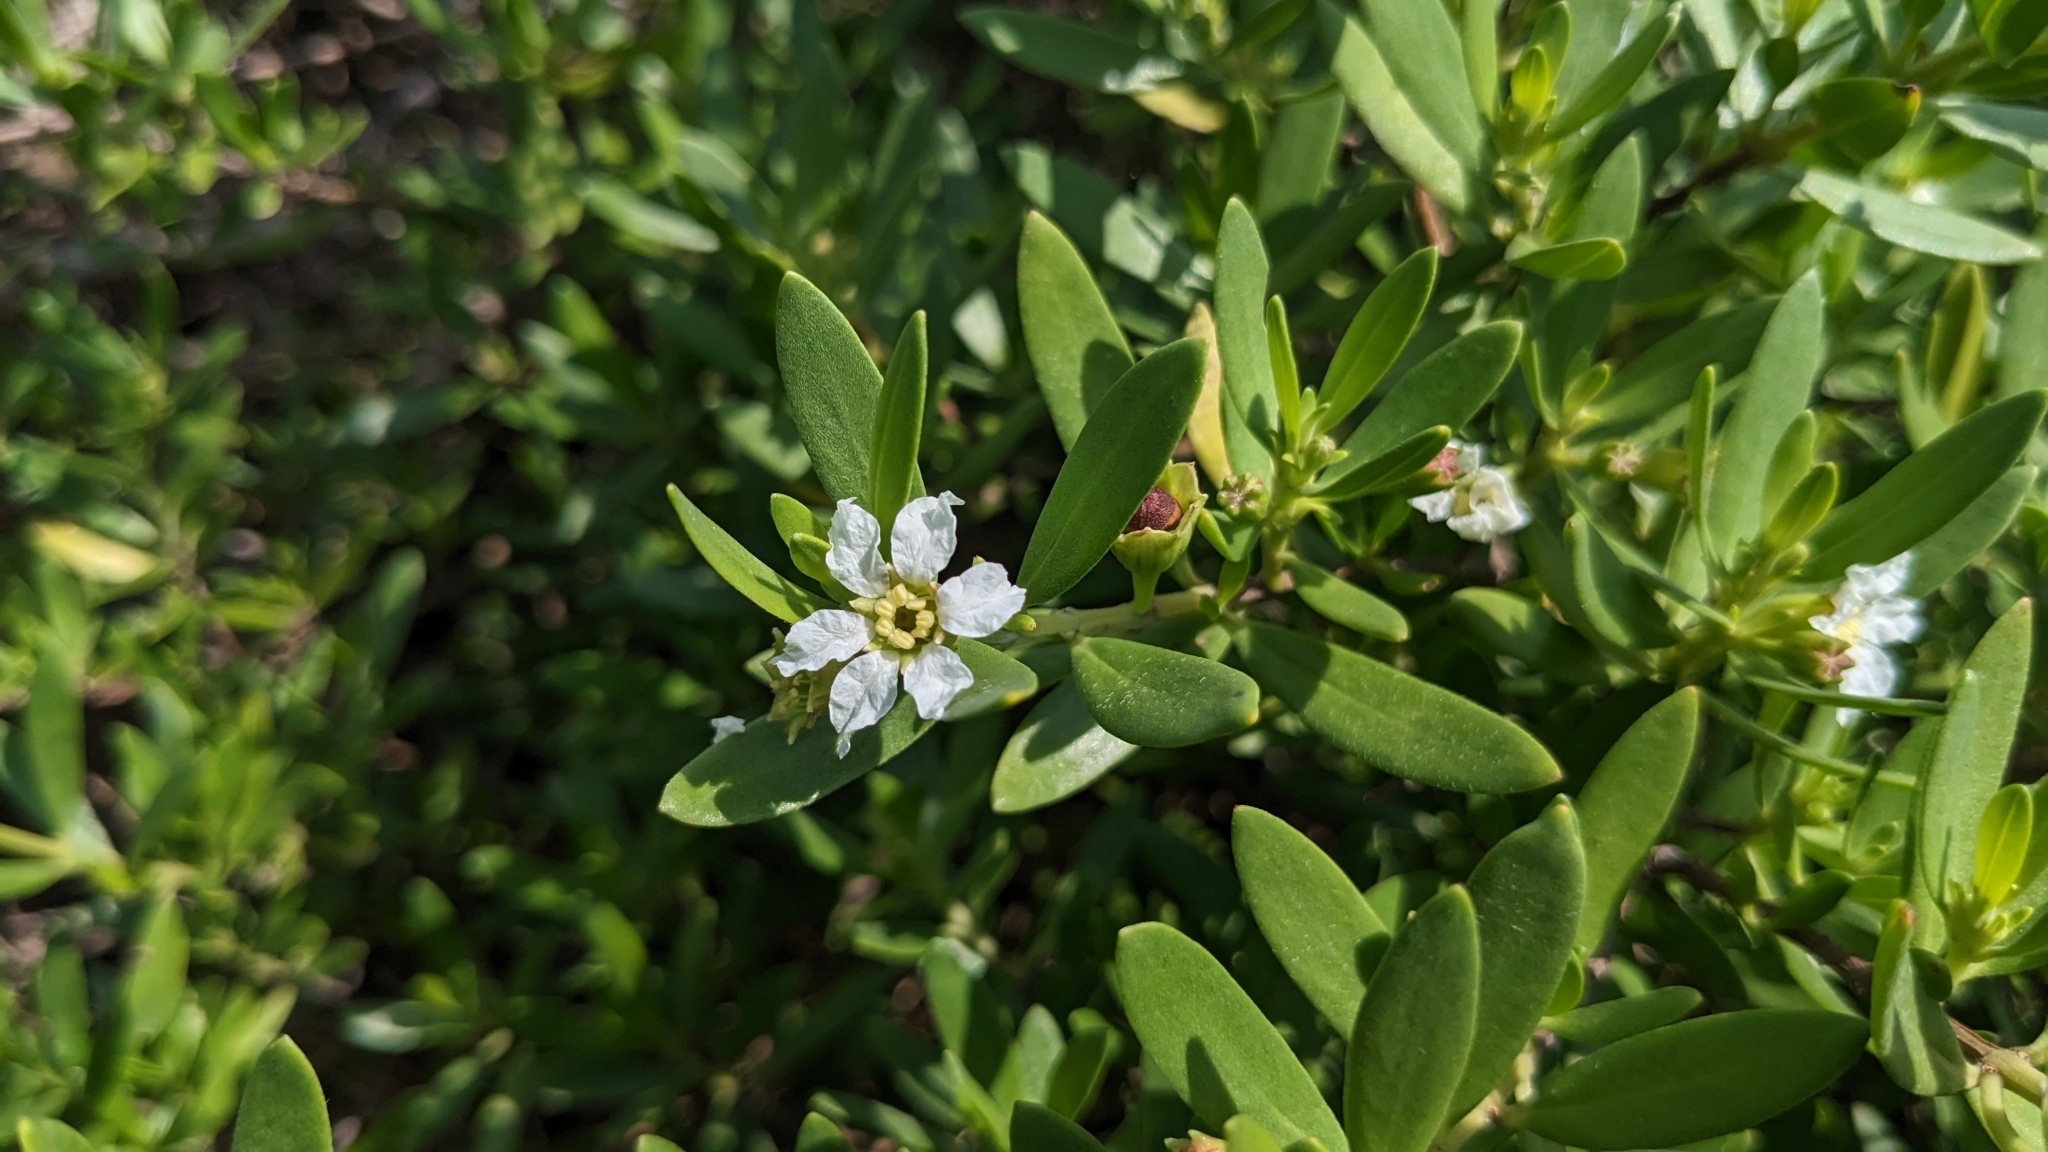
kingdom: Plantae
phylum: Tracheophyta
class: Magnoliopsida
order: Myrtales
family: Lythraceae
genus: Pemphis
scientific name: Pemphis acidula
